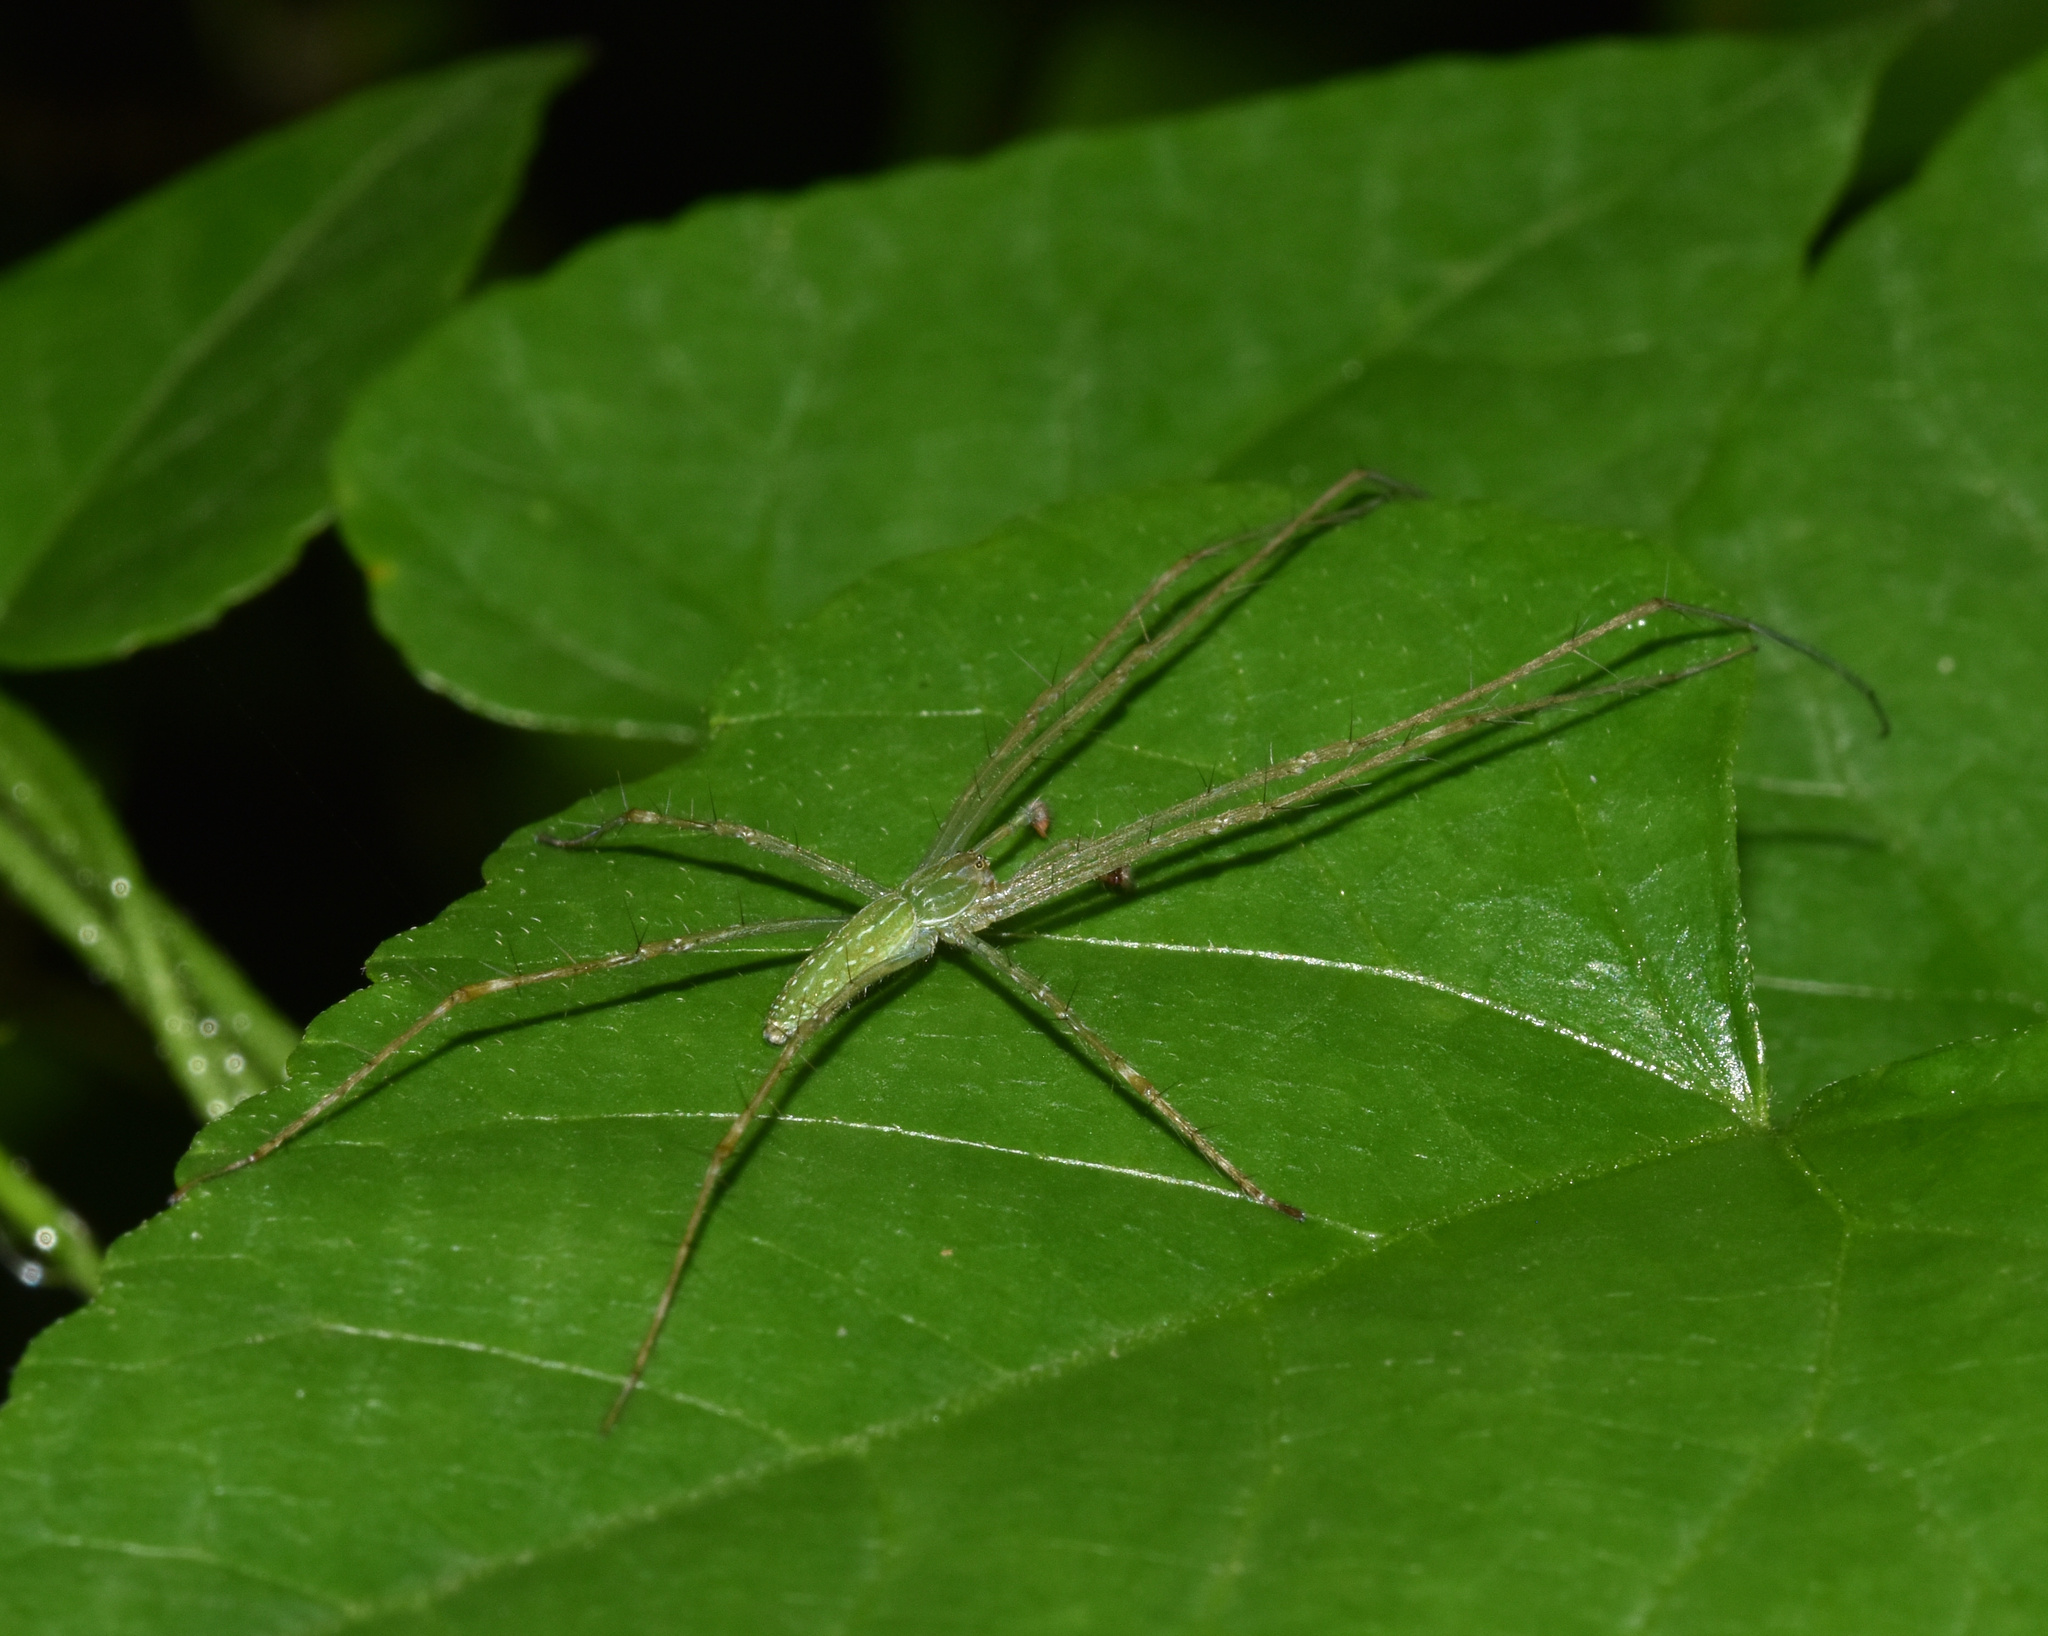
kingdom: Animalia
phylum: Arthropoda
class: Arachnida
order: Araneae
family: Pisauridae
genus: Hygropoda
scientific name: Hygropoda tangana
